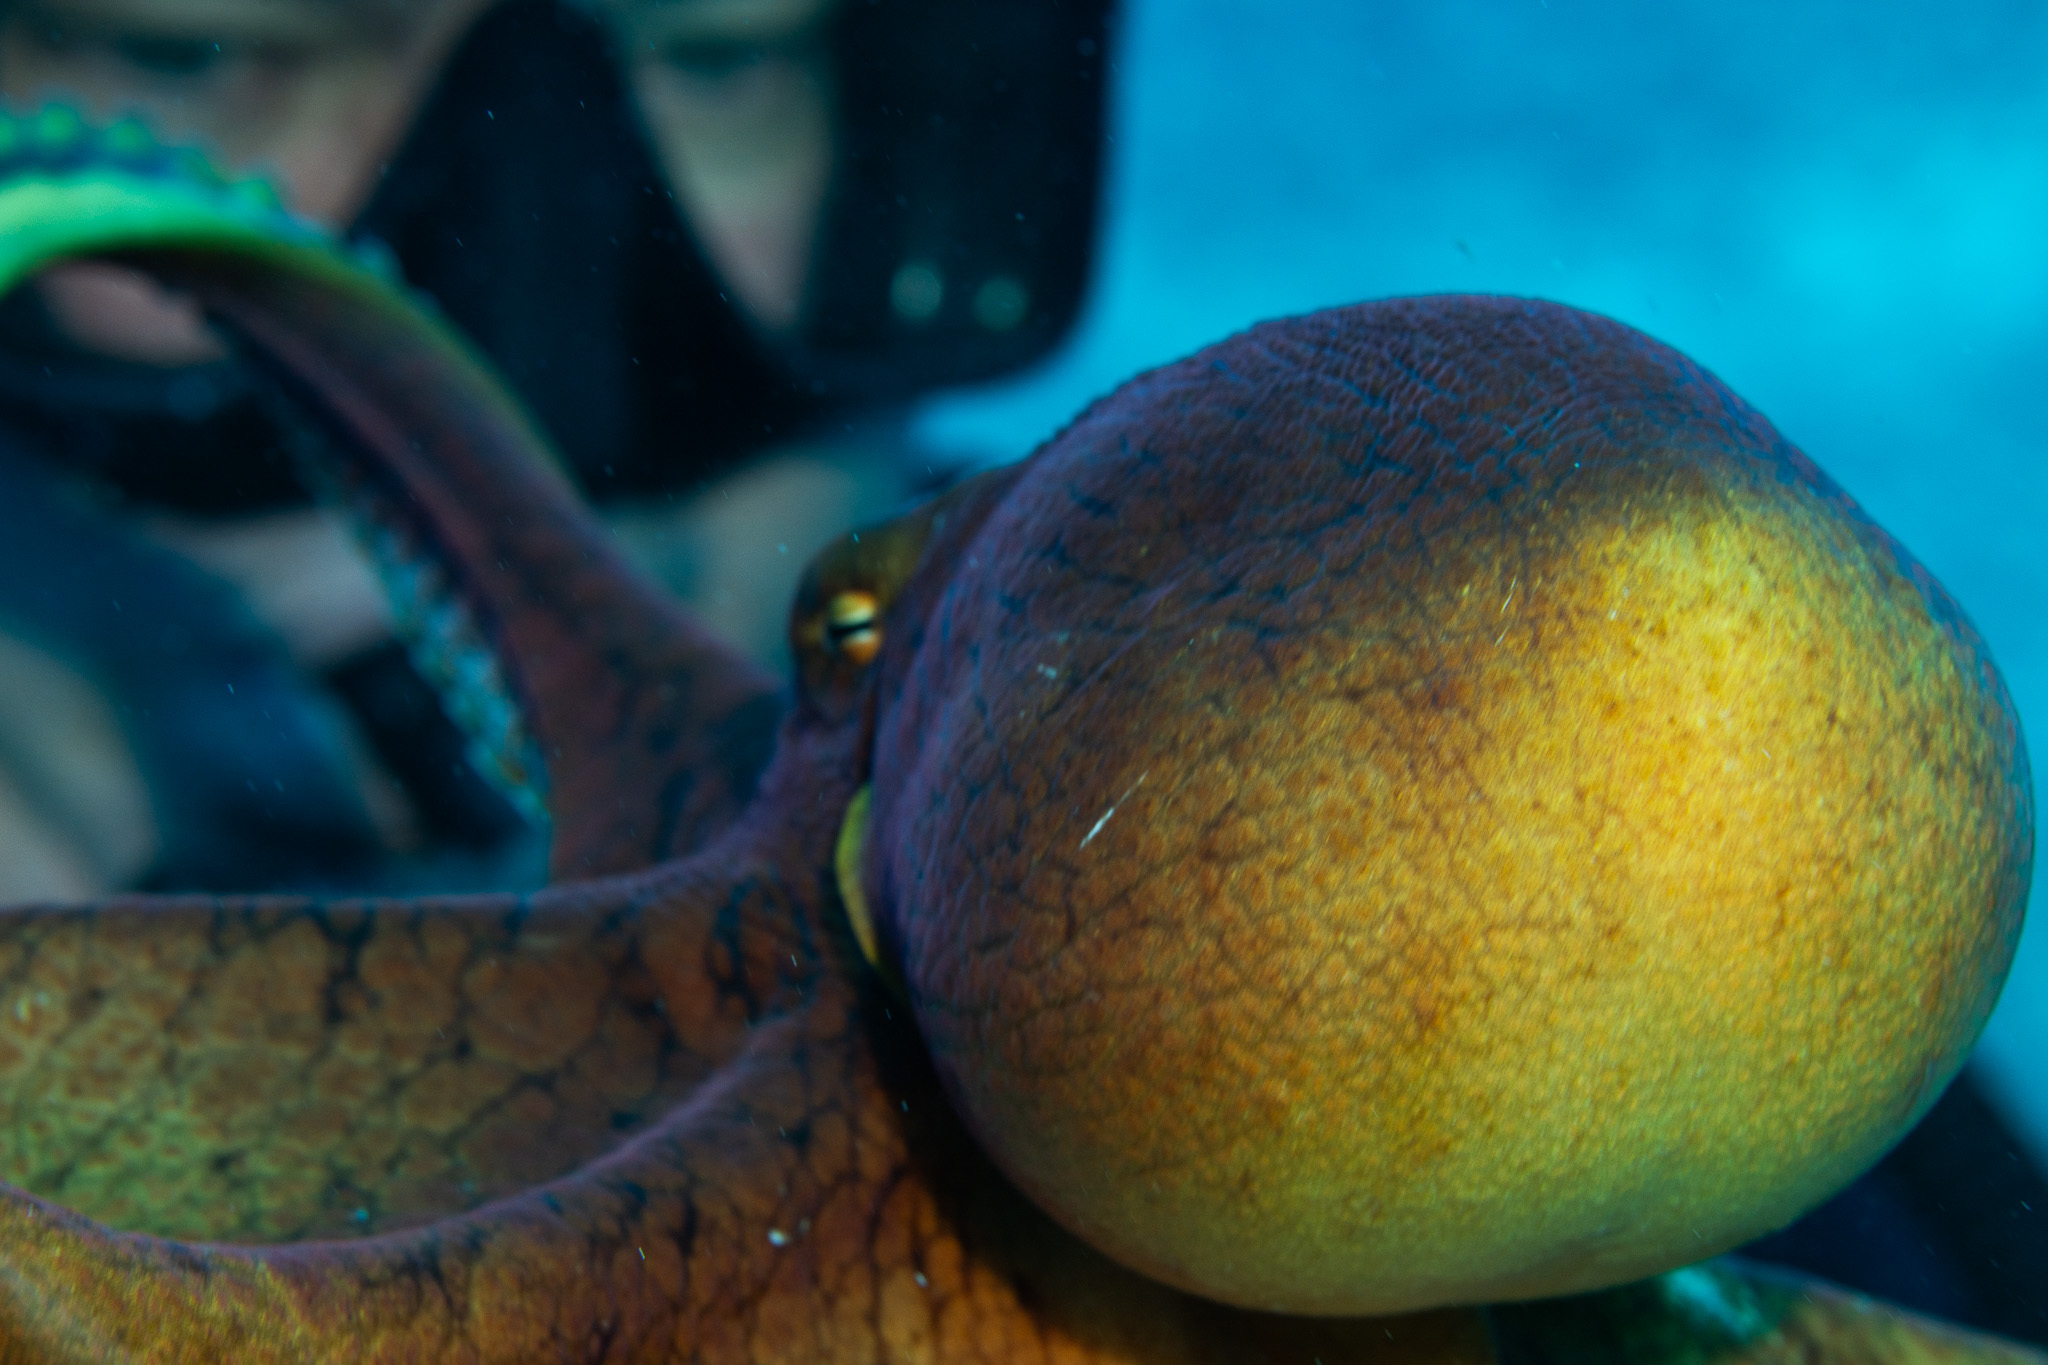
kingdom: Animalia
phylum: Mollusca
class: Cephalopoda
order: Octopoda
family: Octopodidae
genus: Octopus
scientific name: Octopus cyanea
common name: Cyane's octopus
